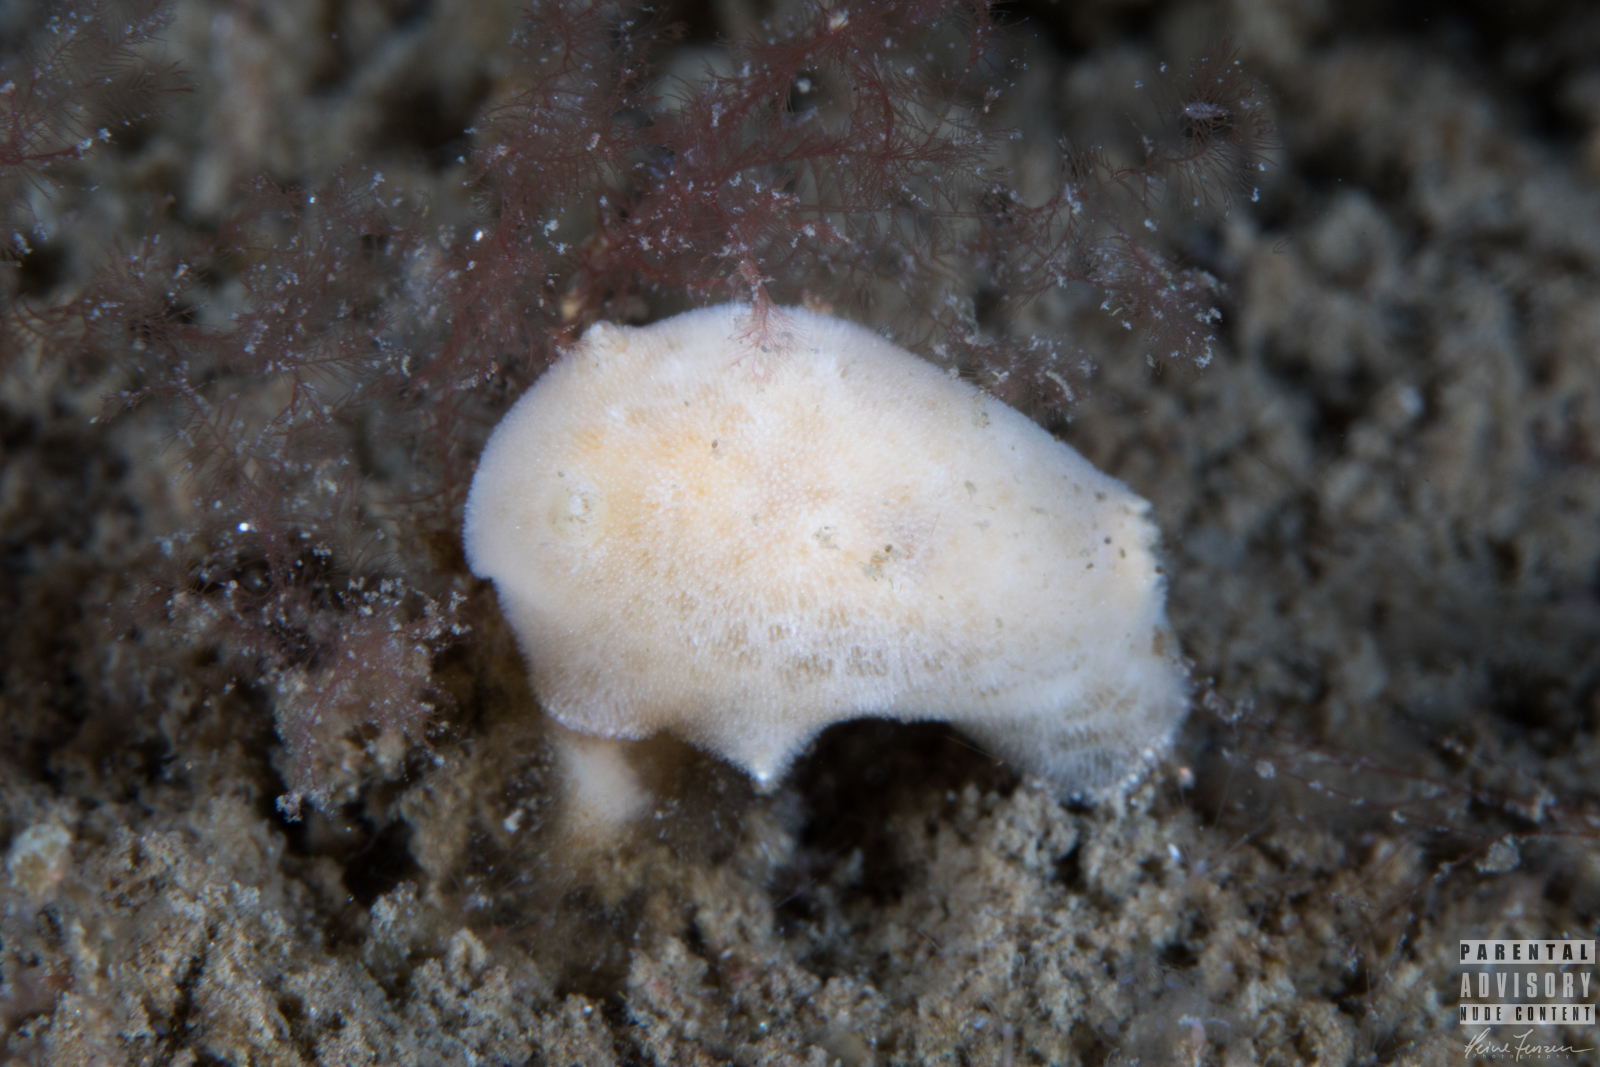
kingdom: Animalia
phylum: Mollusca
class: Gastropoda
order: Nudibranchia
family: Discodorididae
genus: Jorunna
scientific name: Jorunna tomentosa
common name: Grey sea slug
